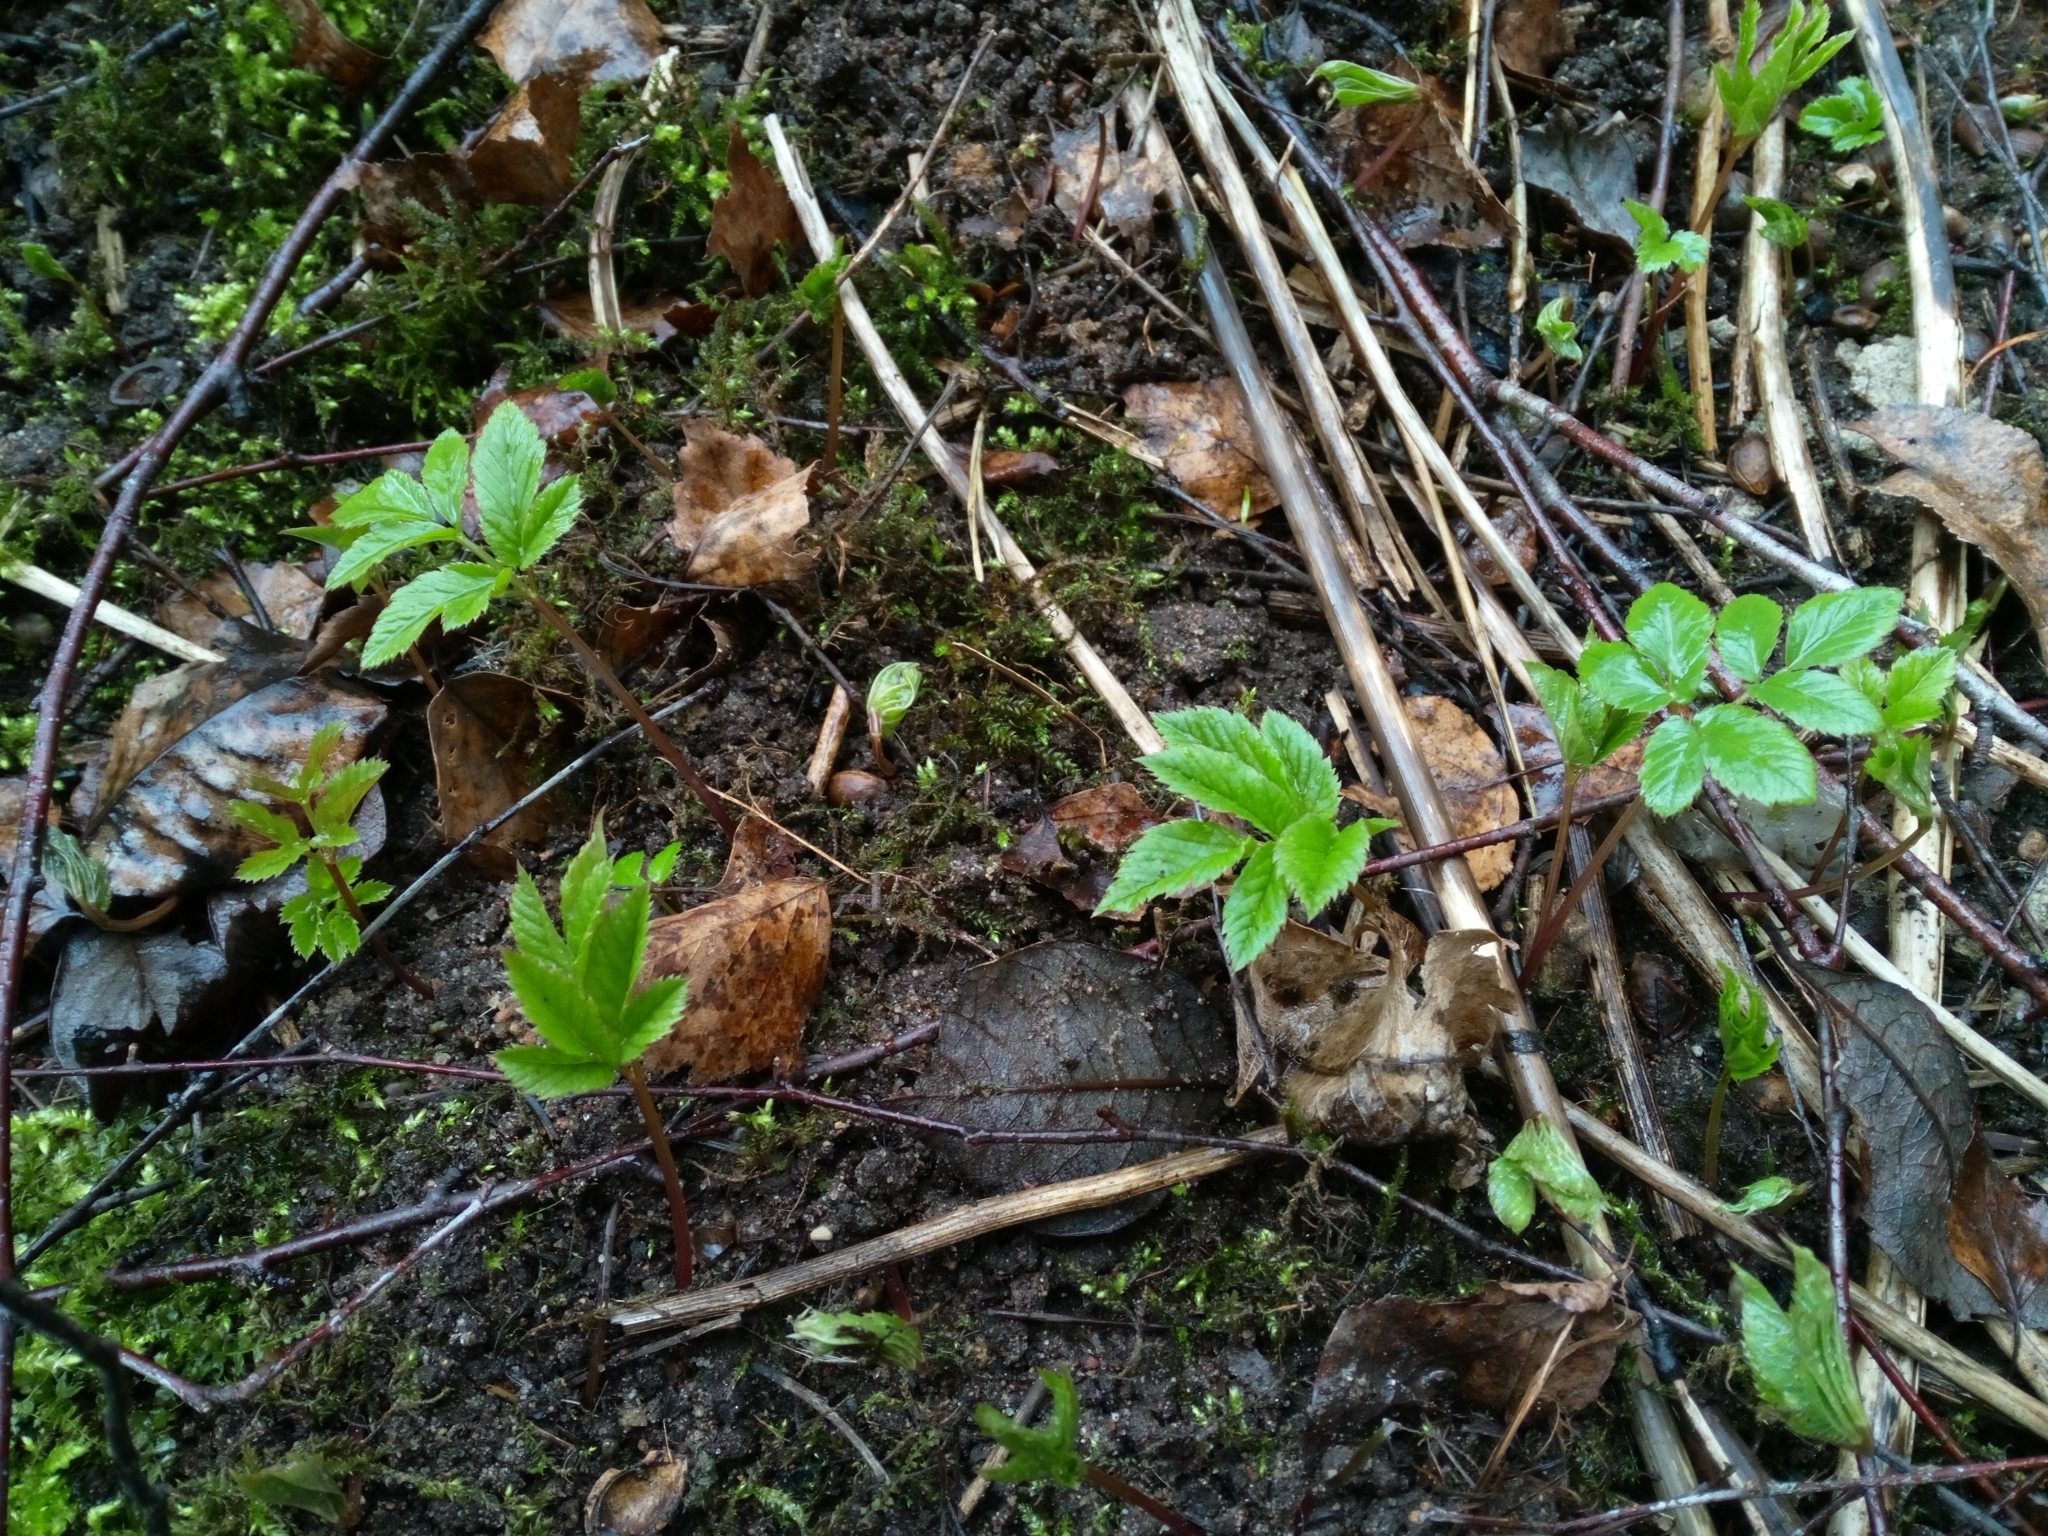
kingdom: Plantae
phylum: Tracheophyta
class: Magnoliopsida
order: Apiales
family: Apiaceae
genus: Aegopodium
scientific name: Aegopodium podagraria
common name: Ground-elder
